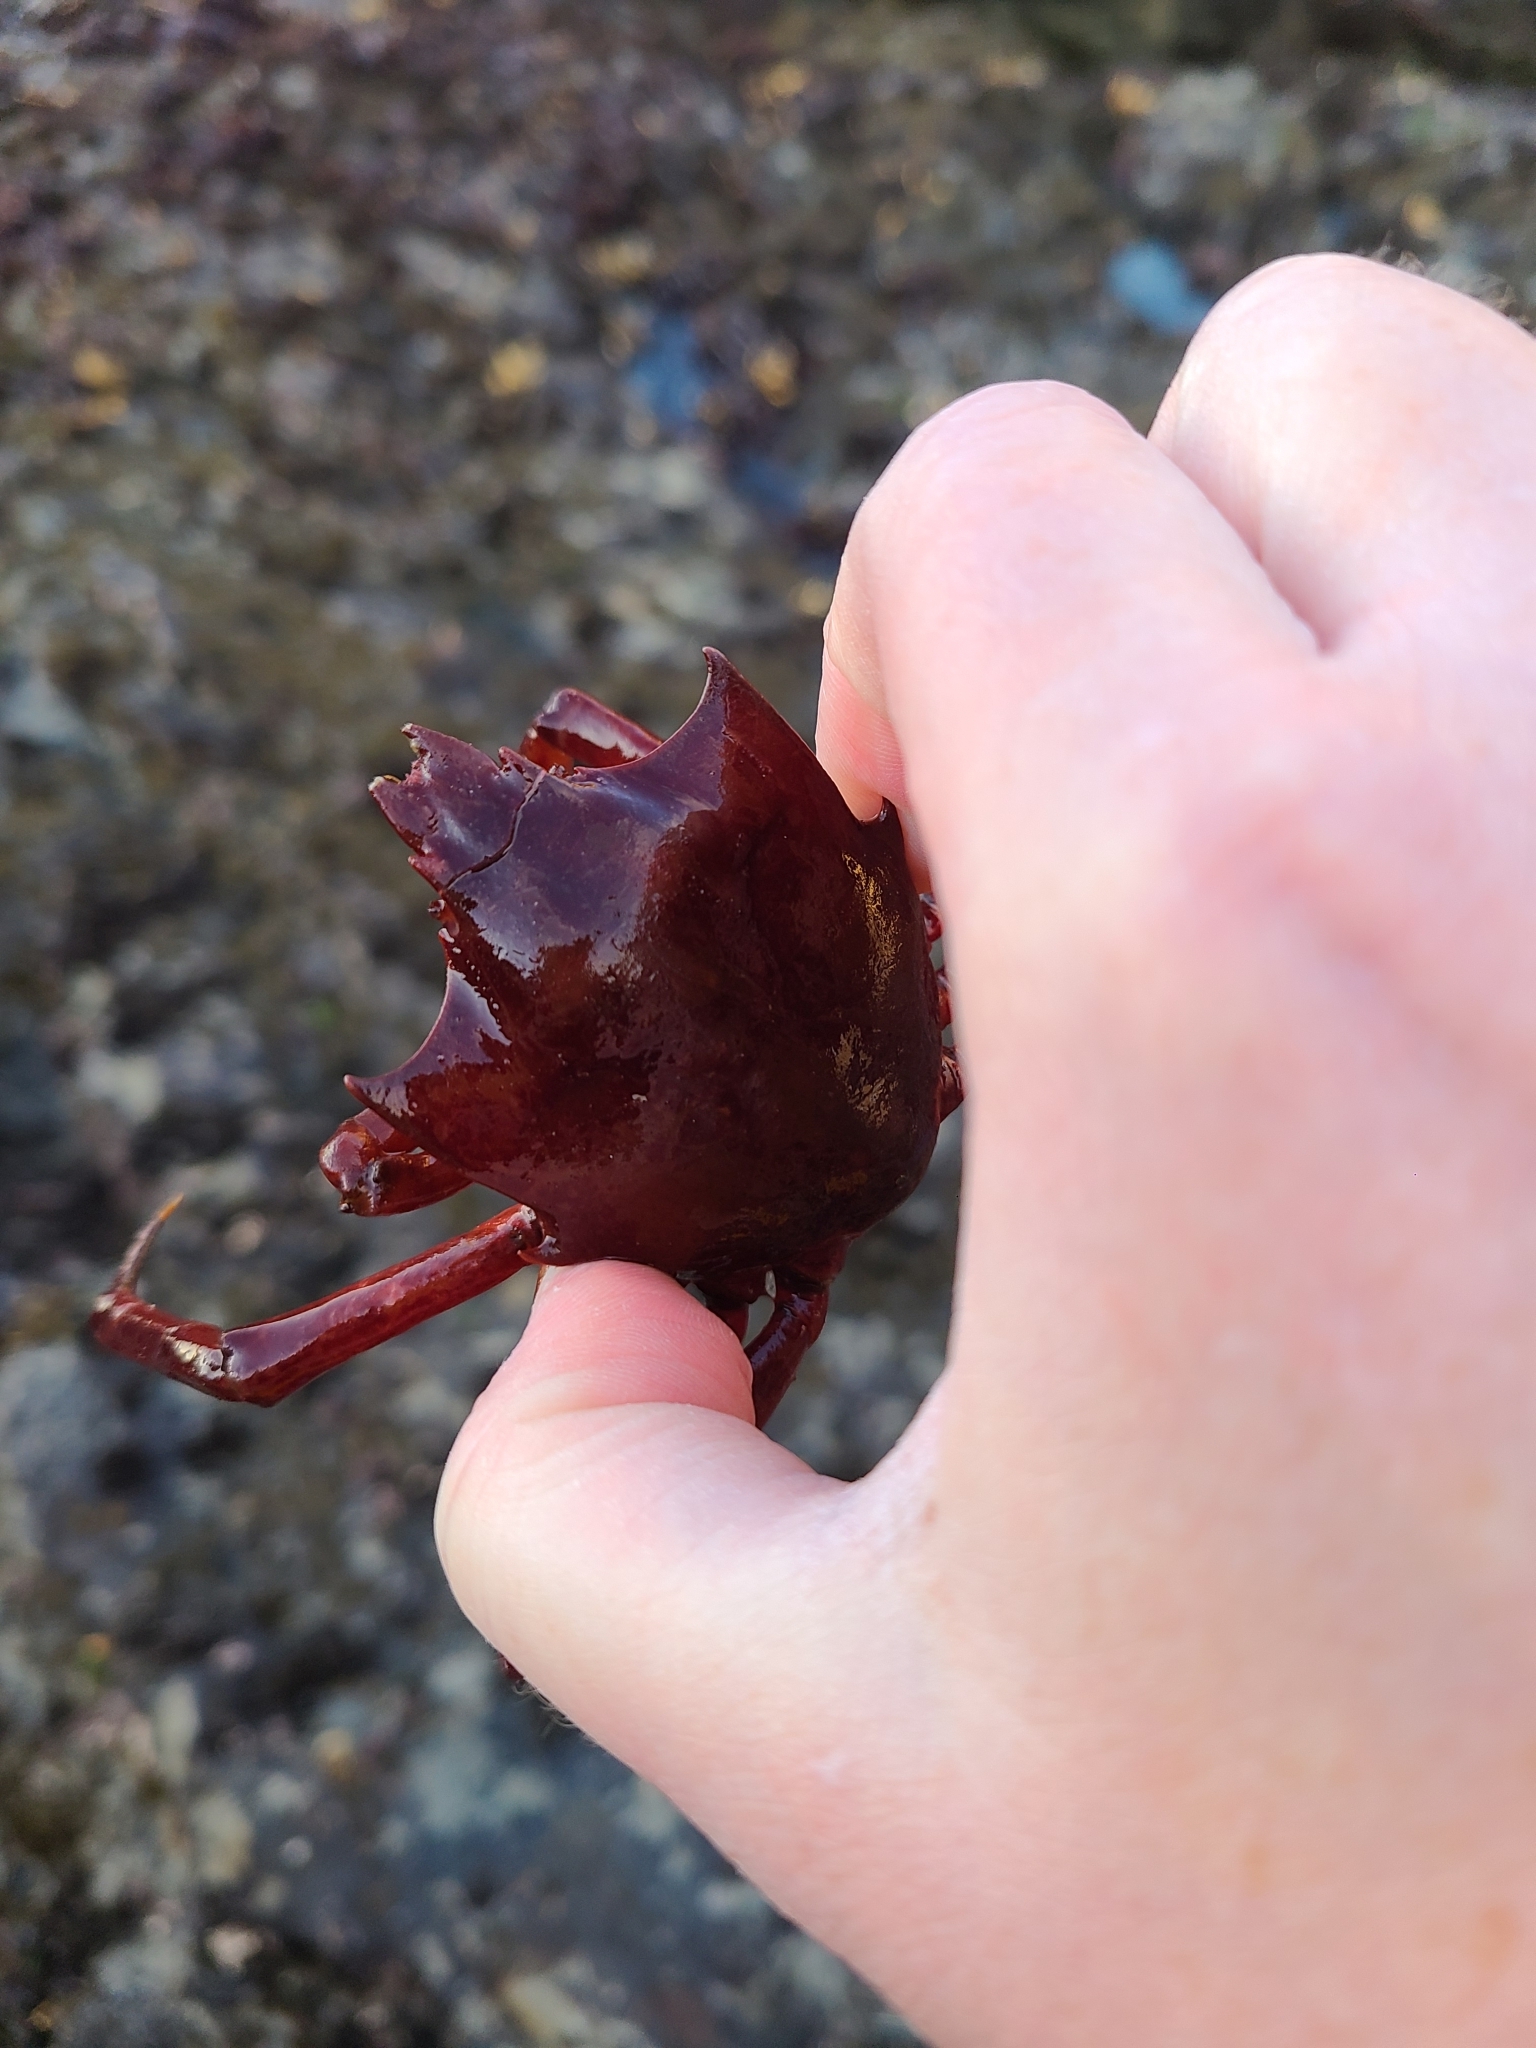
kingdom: Animalia
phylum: Arthropoda
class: Malacostraca
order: Decapoda
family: Epialtidae
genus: Pugettia
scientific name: Pugettia producta
